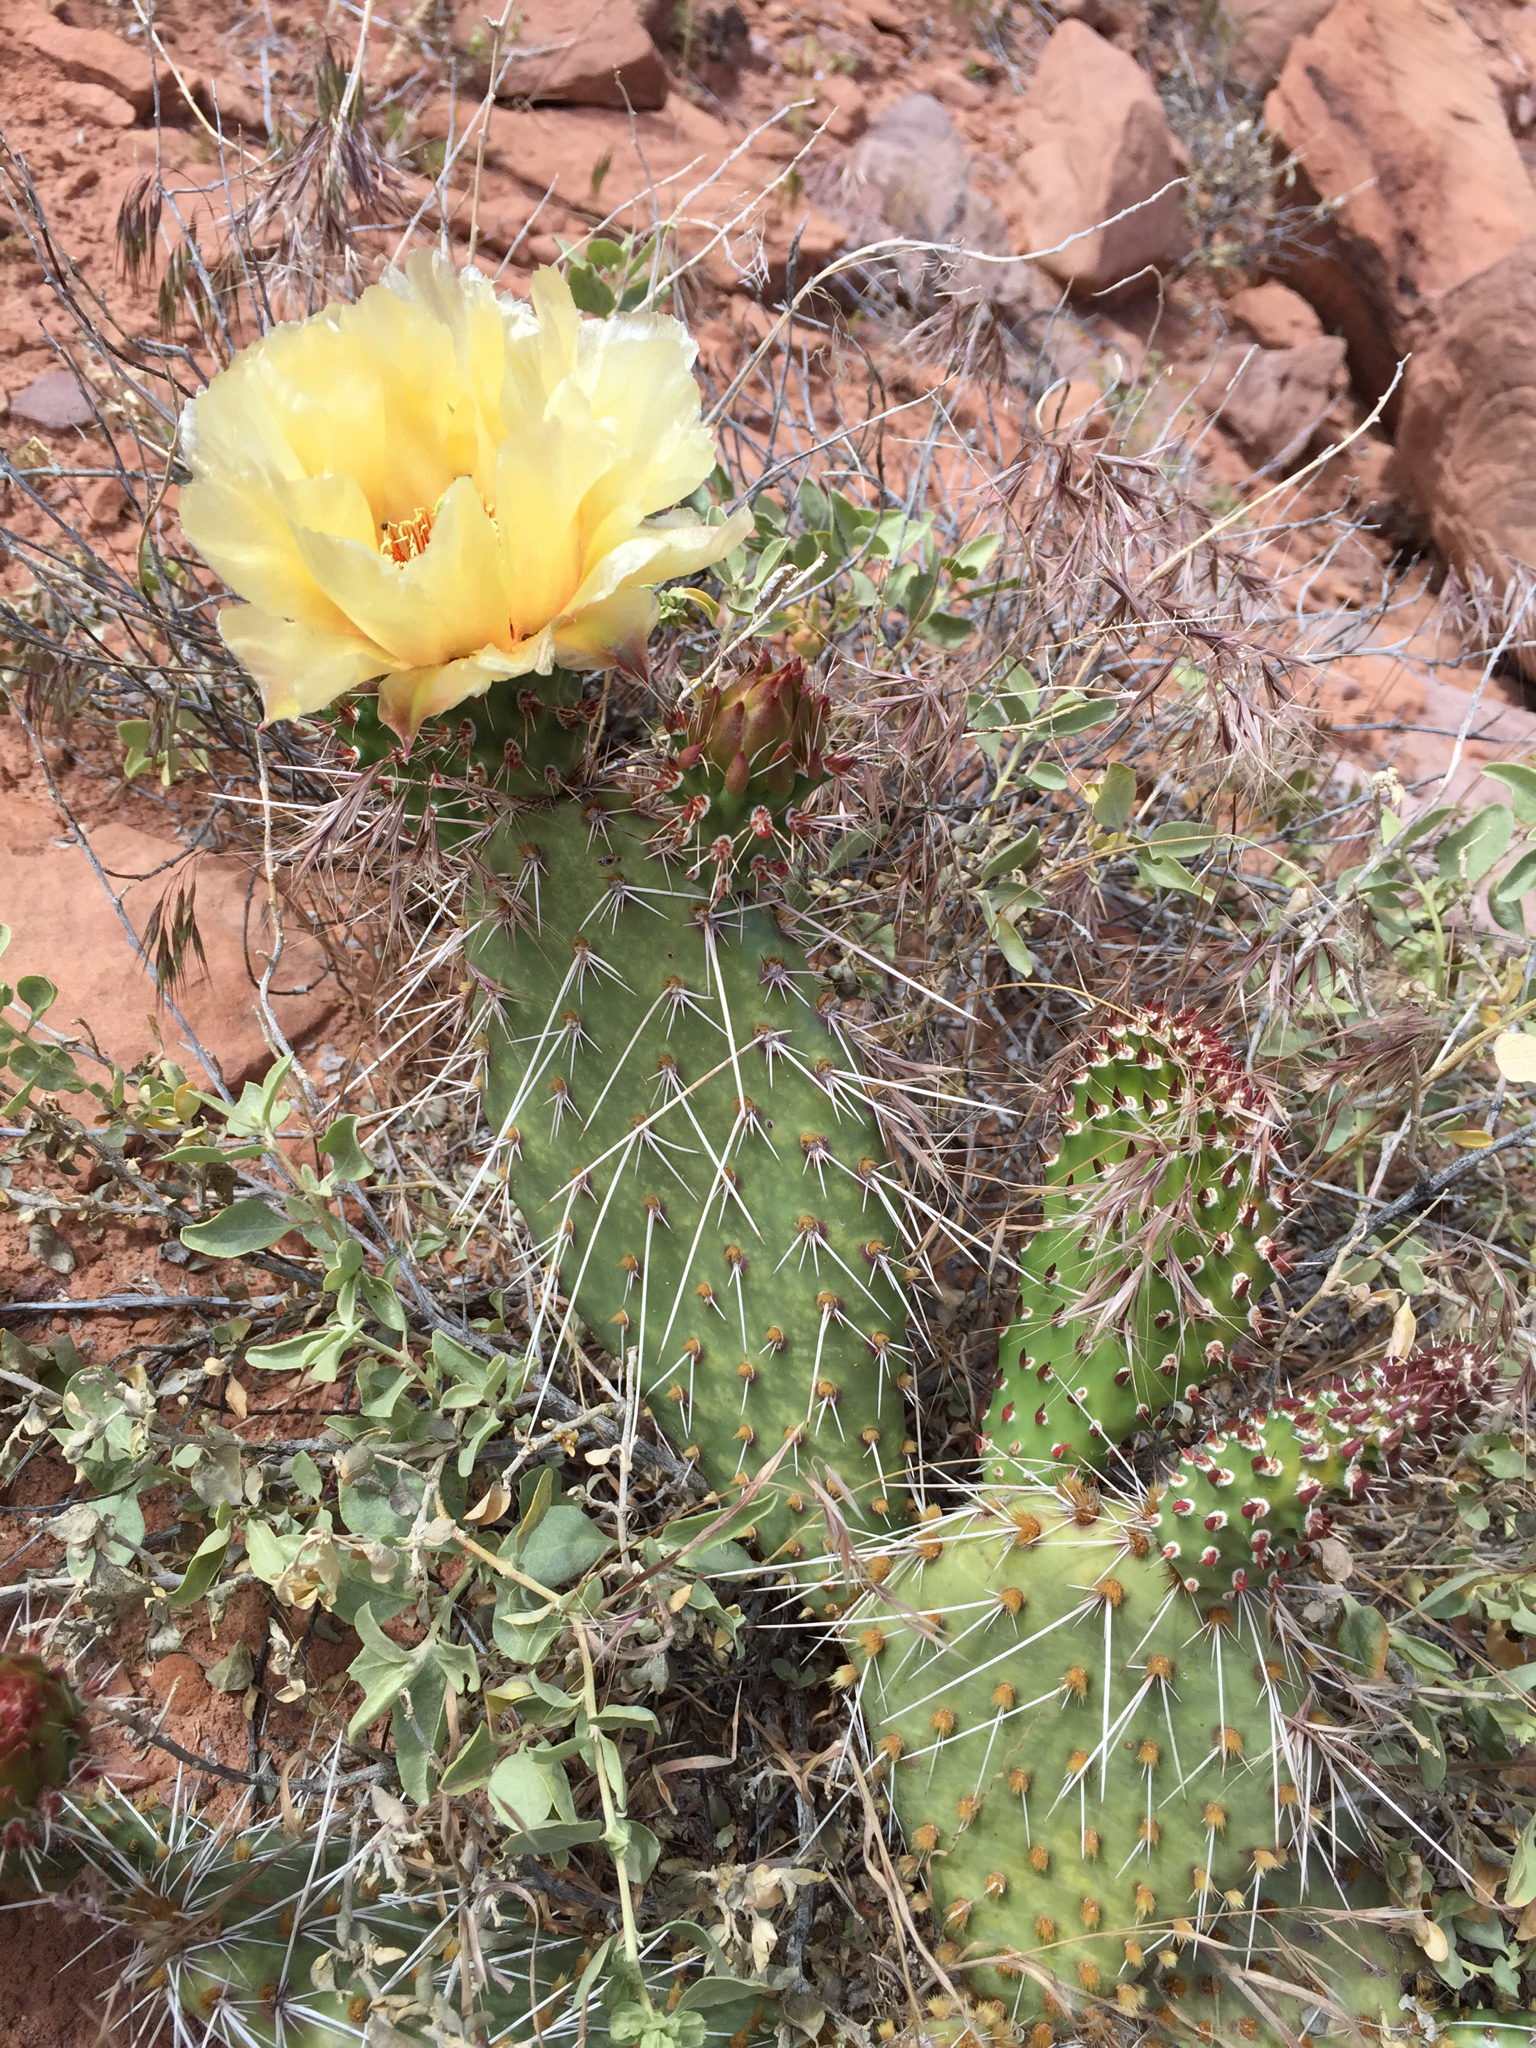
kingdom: Plantae
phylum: Tracheophyta
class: Magnoliopsida
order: Caryophyllales
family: Cactaceae
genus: Opuntia
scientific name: Opuntia polyacantha
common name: Plains prickly-pear
